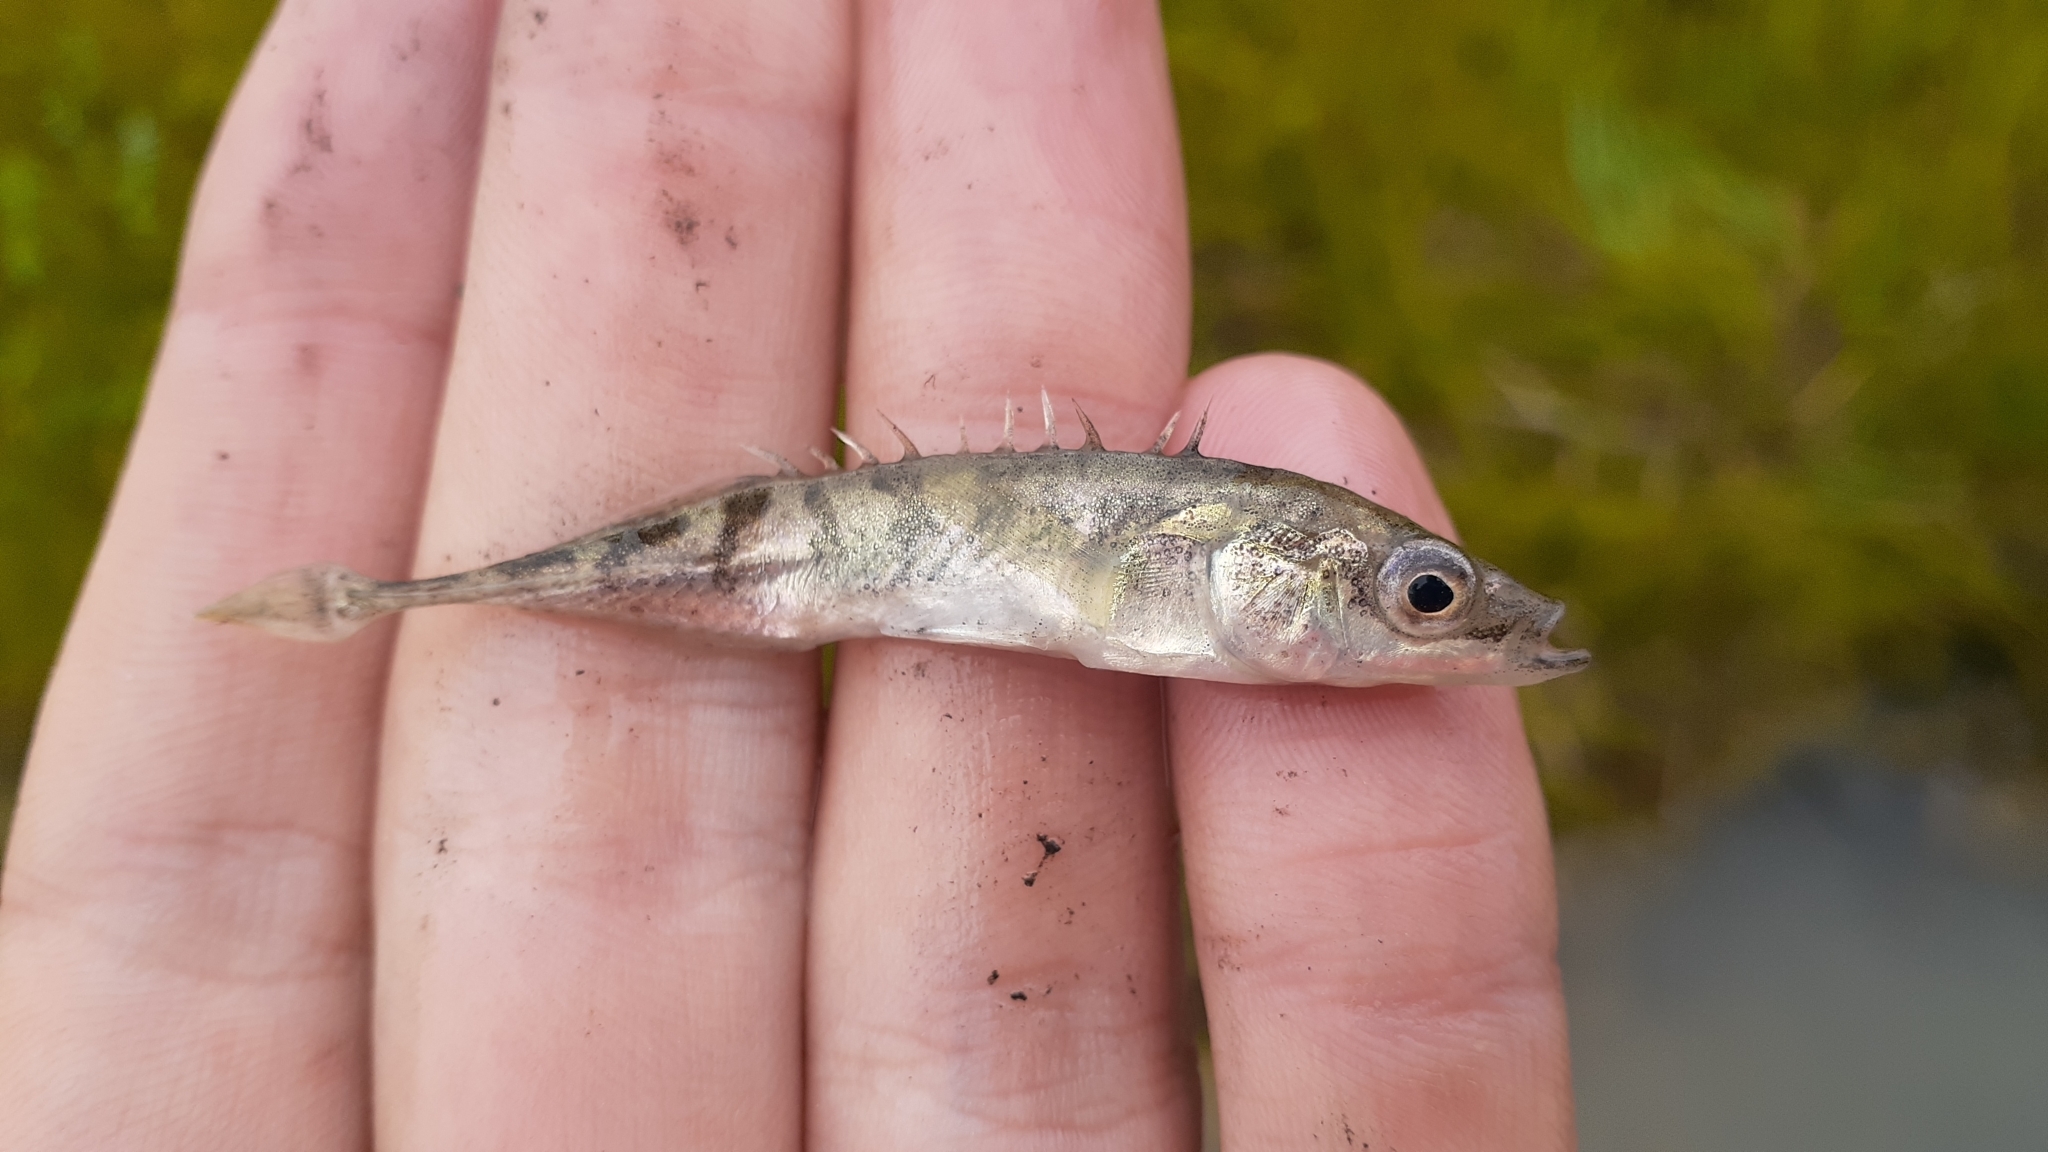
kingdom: Animalia
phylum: Chordata
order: Gasterosteiformes
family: Gasterosteidae
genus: Pungitius
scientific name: Pungitius pungitius
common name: Nine-spined stickleback
